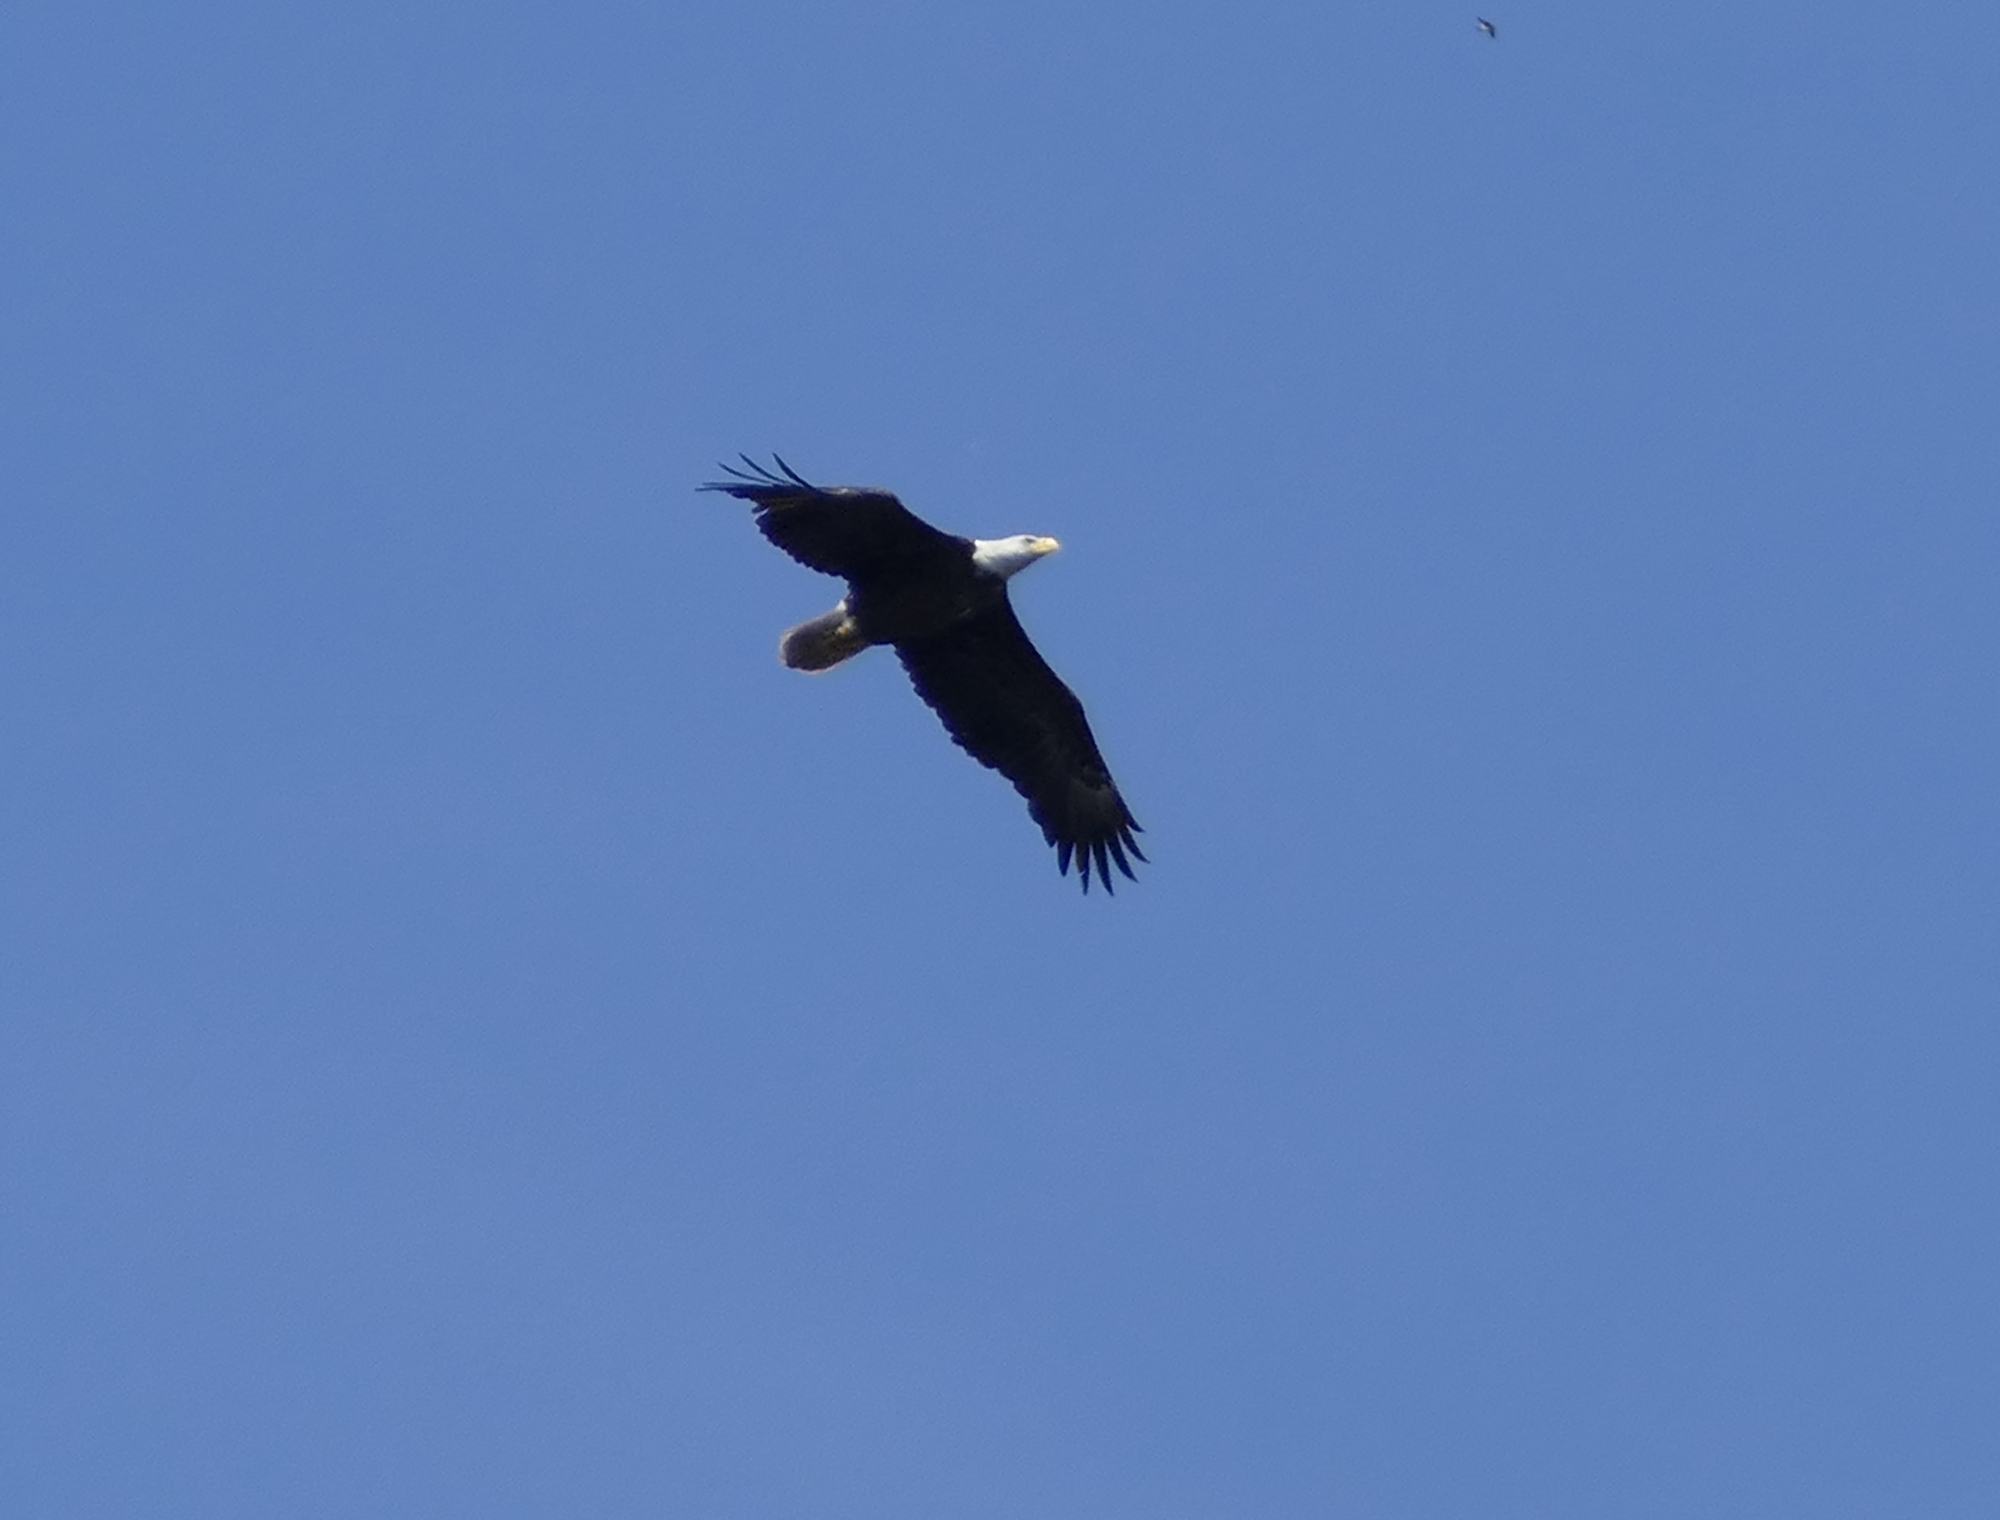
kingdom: Animalia
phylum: Chordata
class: Aves
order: Accipitriformes
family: Accipitridae
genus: Haliaeetus
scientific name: Haliaeetus leucocephalus
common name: Bald eagle
